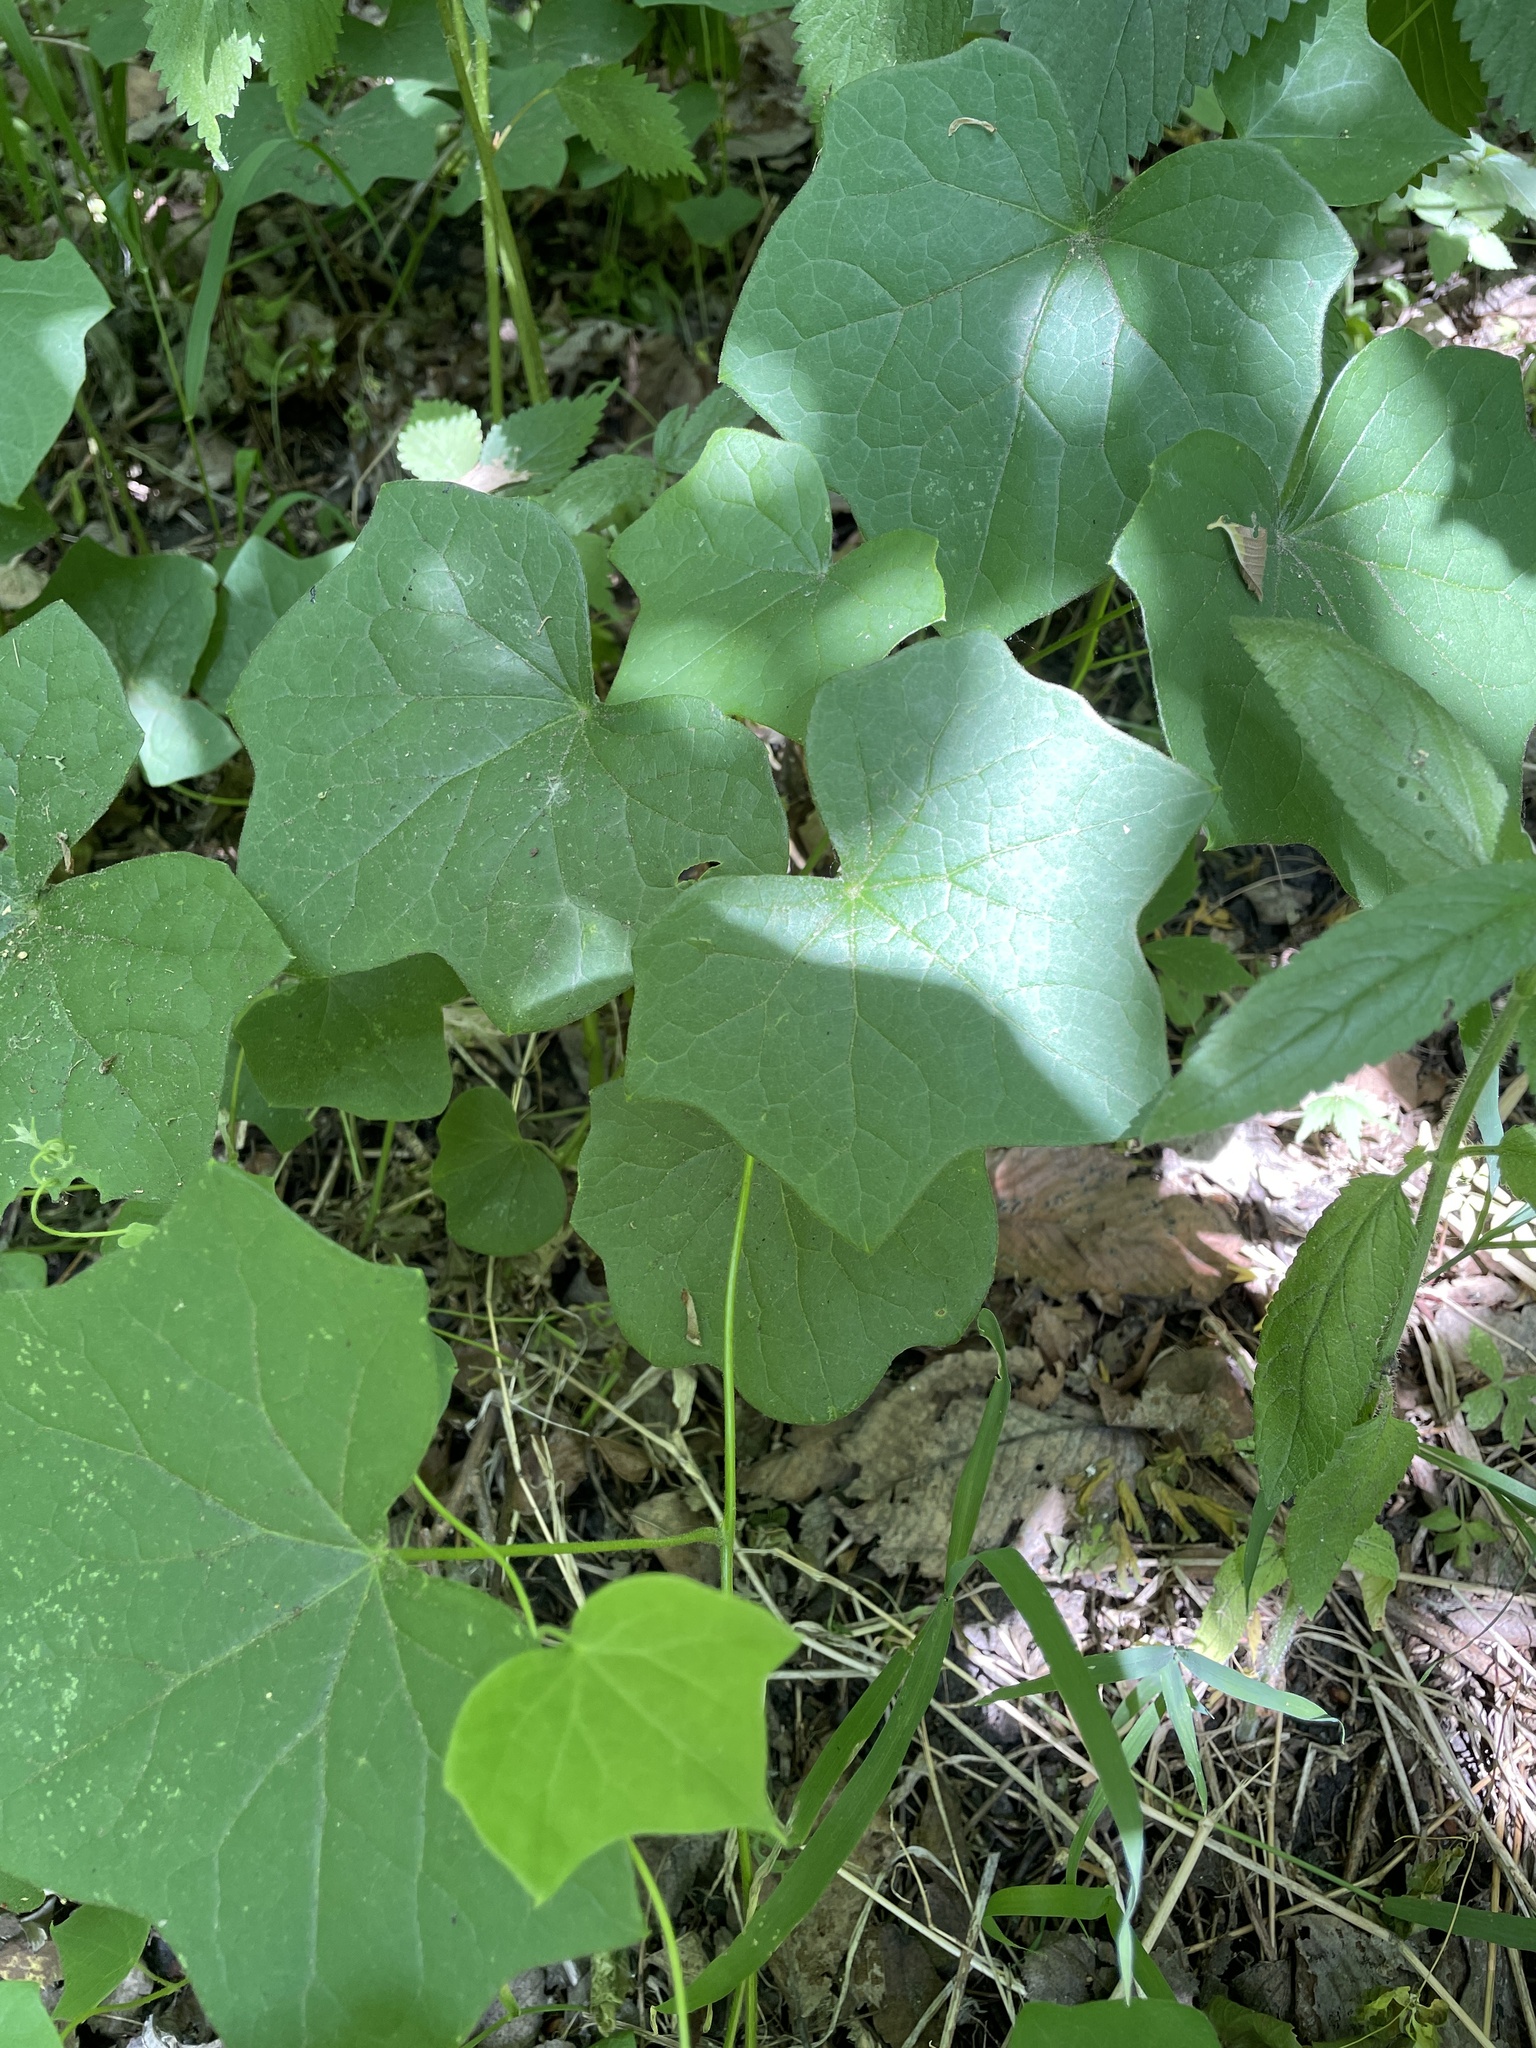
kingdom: Plantae
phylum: Tracheophyta
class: Magnoliopsida
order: Ranunculales
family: Menispermaceae
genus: Menispermum
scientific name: Menispermum canadense
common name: Moonseed
